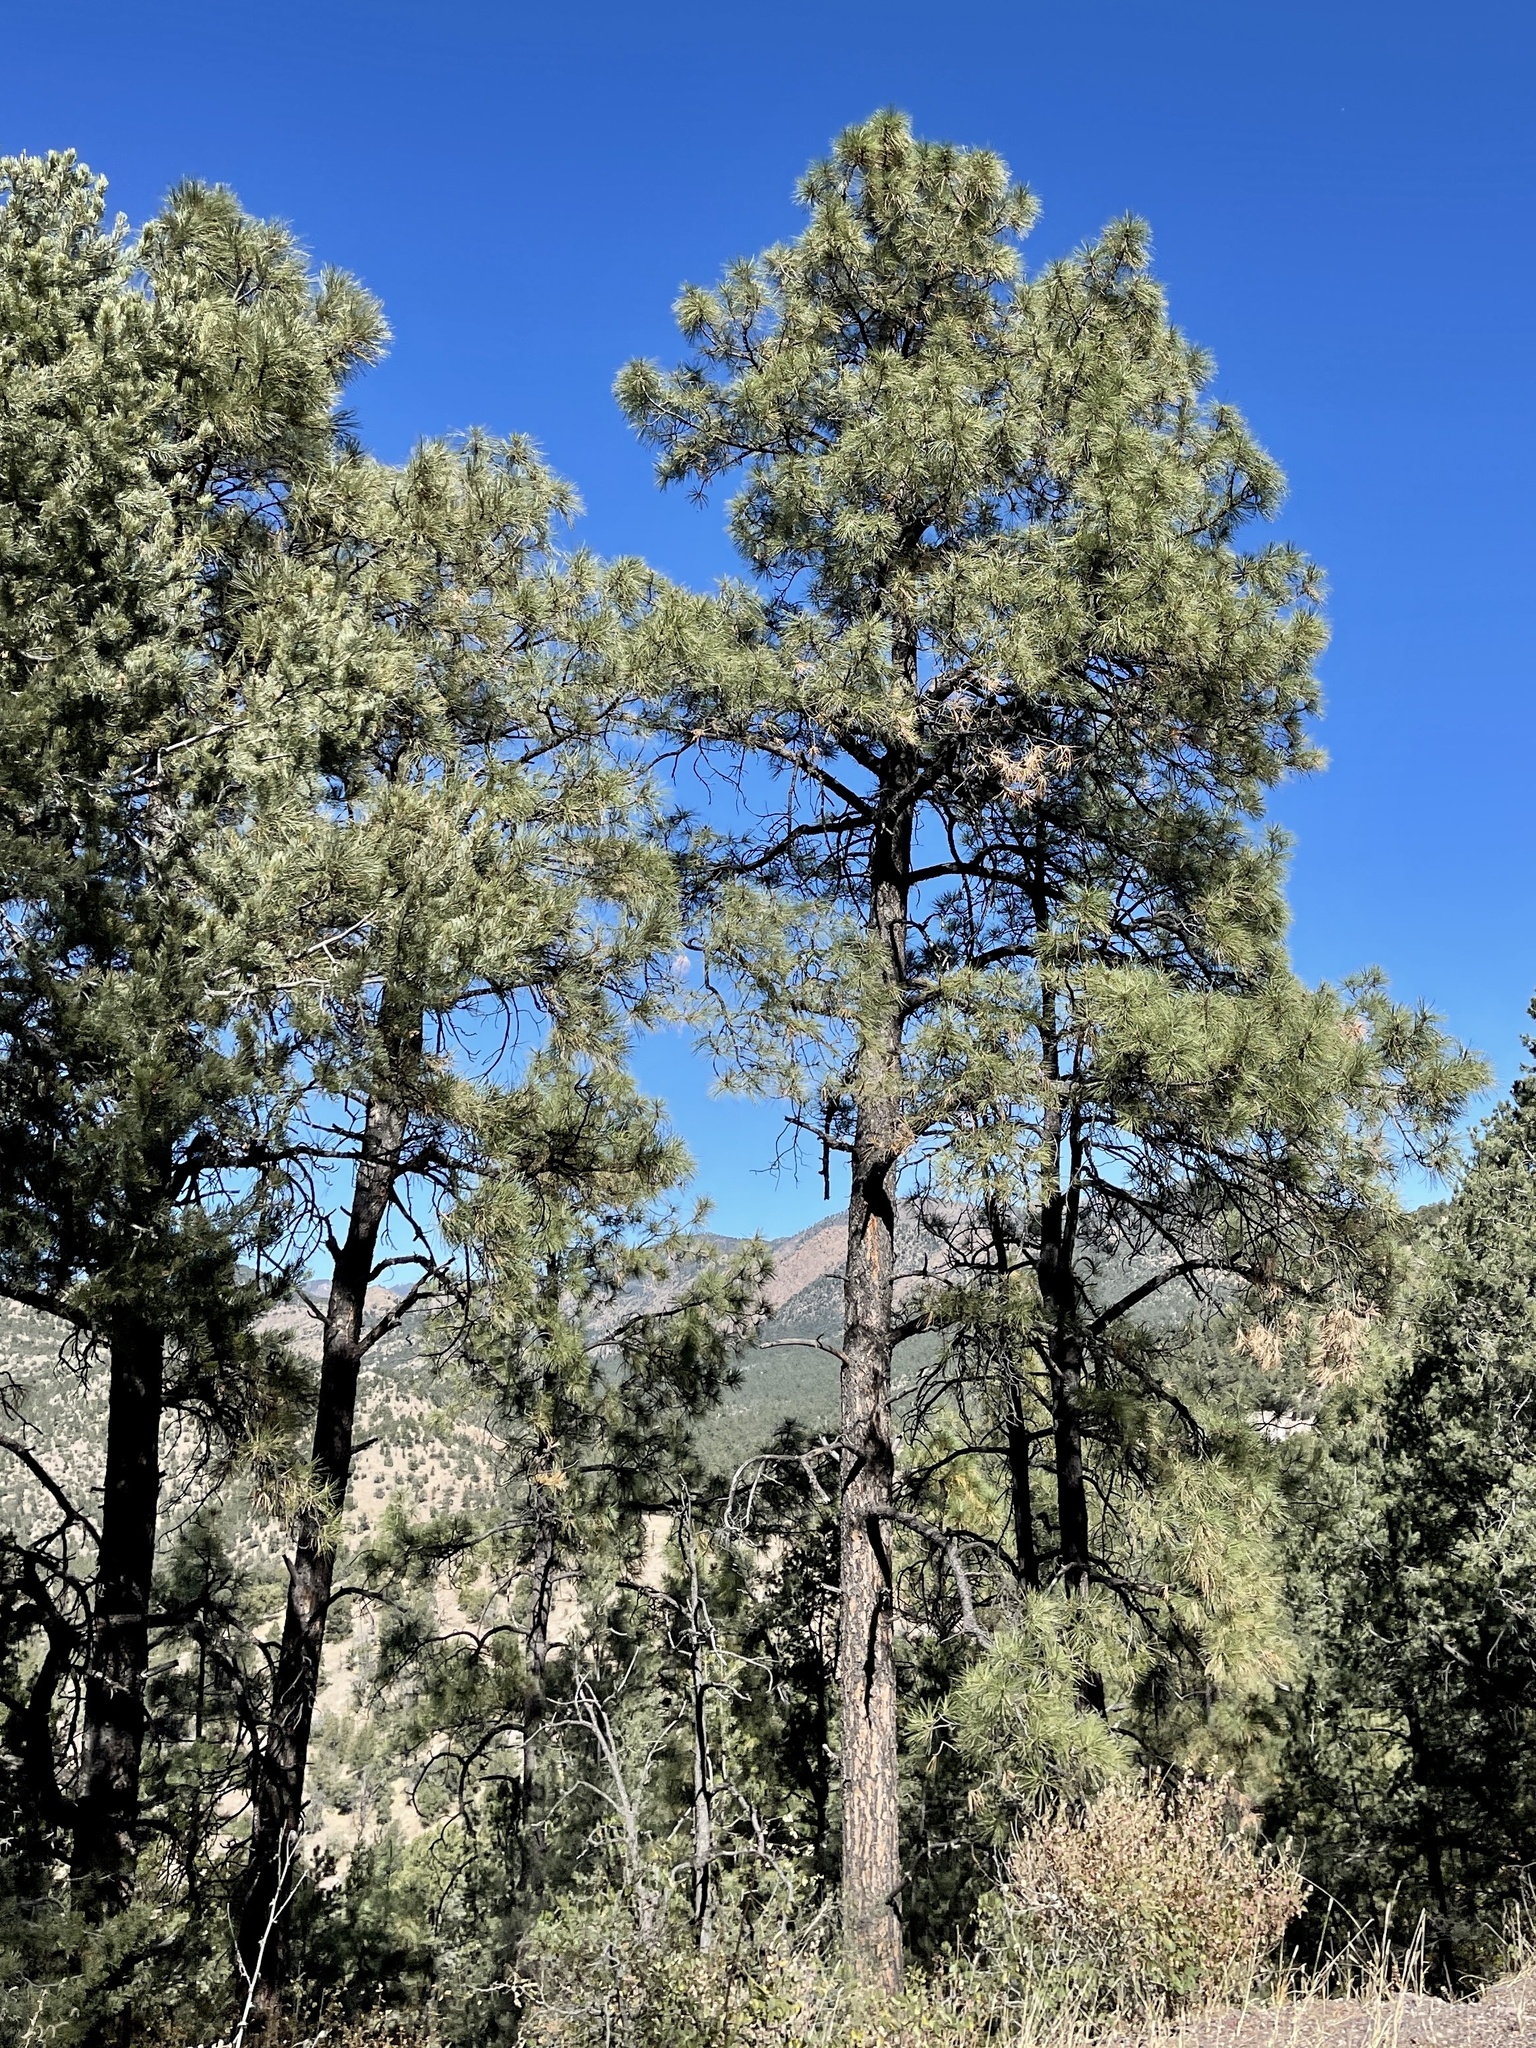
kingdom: Plantae
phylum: Tracheophyta
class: Pinopsida
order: Pinales
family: Pinaceae
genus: Pinus
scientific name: Pinus ponderosa
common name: Western yellow-pine
